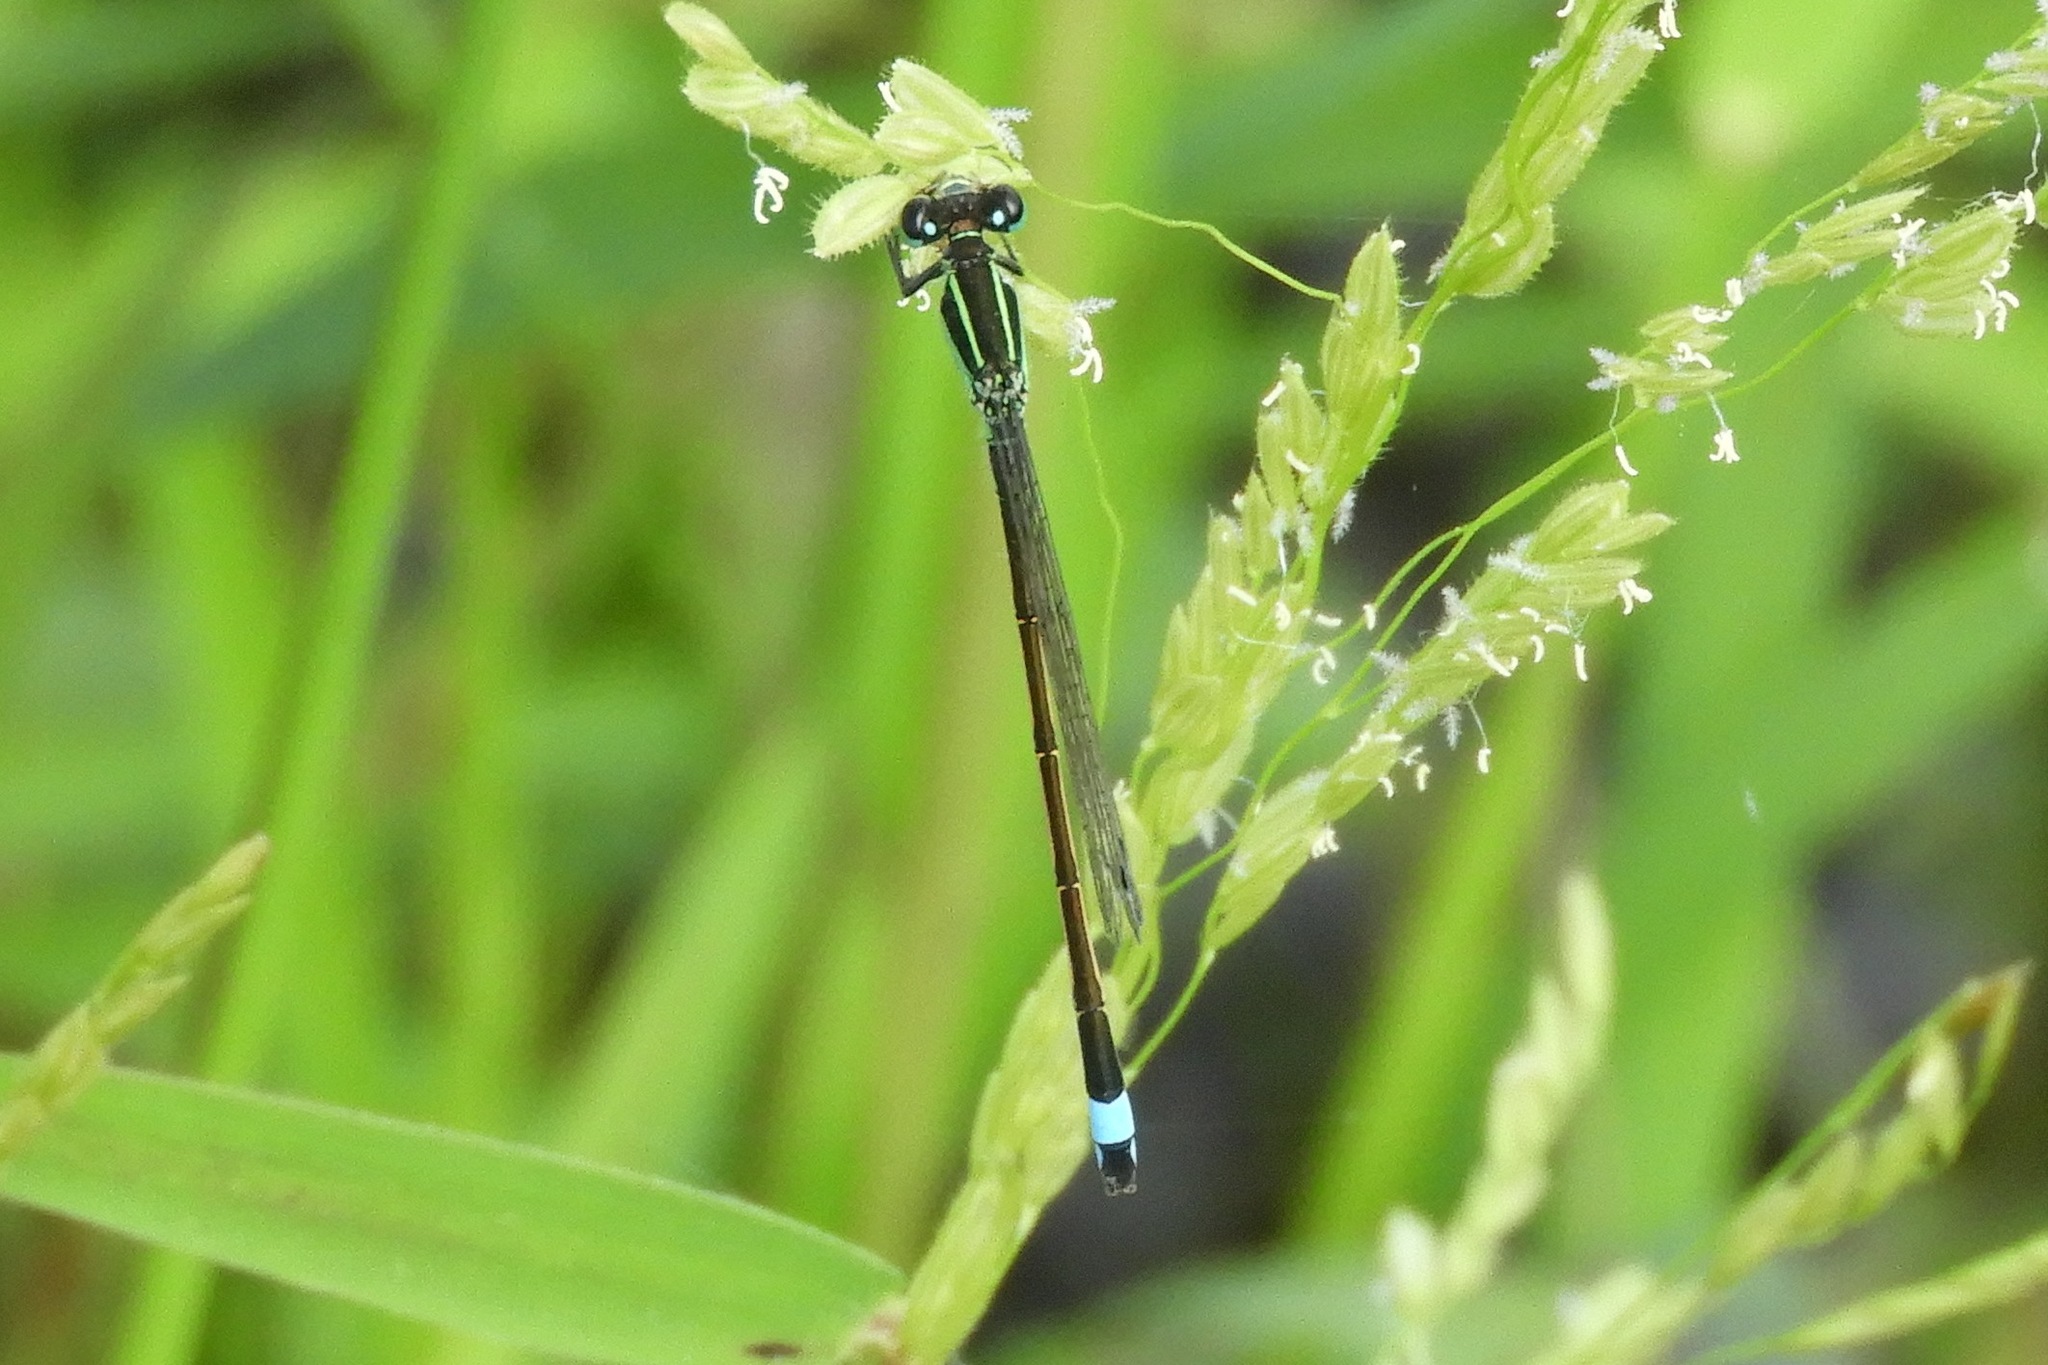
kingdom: Animalia
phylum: Arthropoda
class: Insecta
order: Odonata
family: Coenagrionidae
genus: Ischnura
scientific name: Ischnura ramburii
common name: Rambur's forktail
